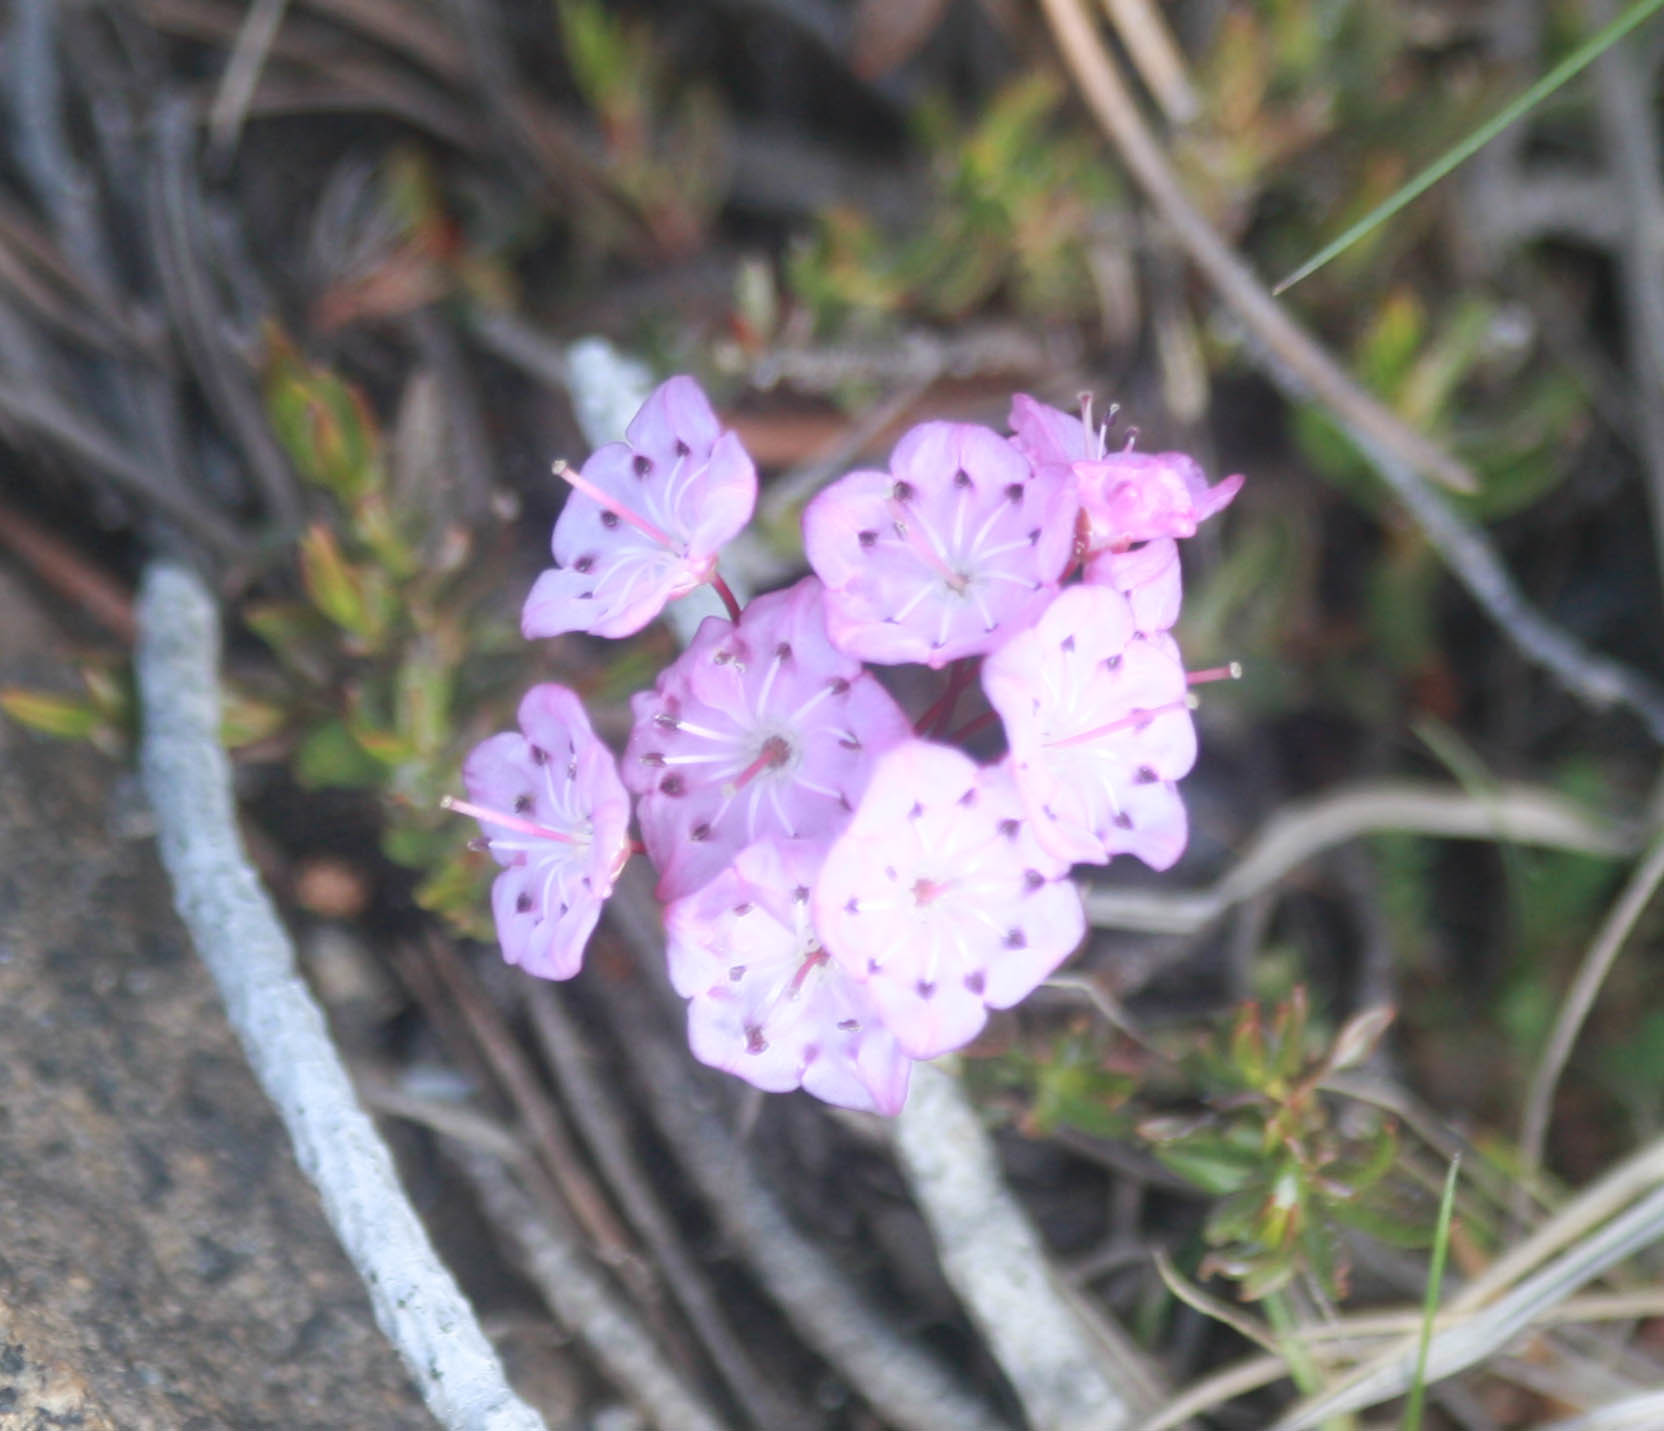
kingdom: Plantae
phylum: Tracheophyta
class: Magnoliopsida
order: Ericales
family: Ericaceae
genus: Kalmia
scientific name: Kalmia microphylla
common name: Alpine bog laurel
